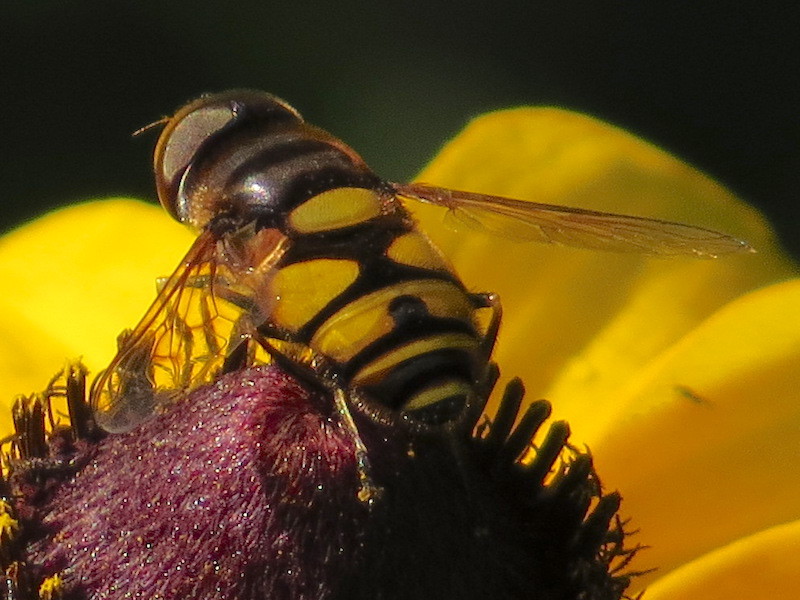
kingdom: Animalia
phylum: Arthropoda
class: Insecta
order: Diptera
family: Syrphidae
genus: Eristalis
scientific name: Eristalis transversa
